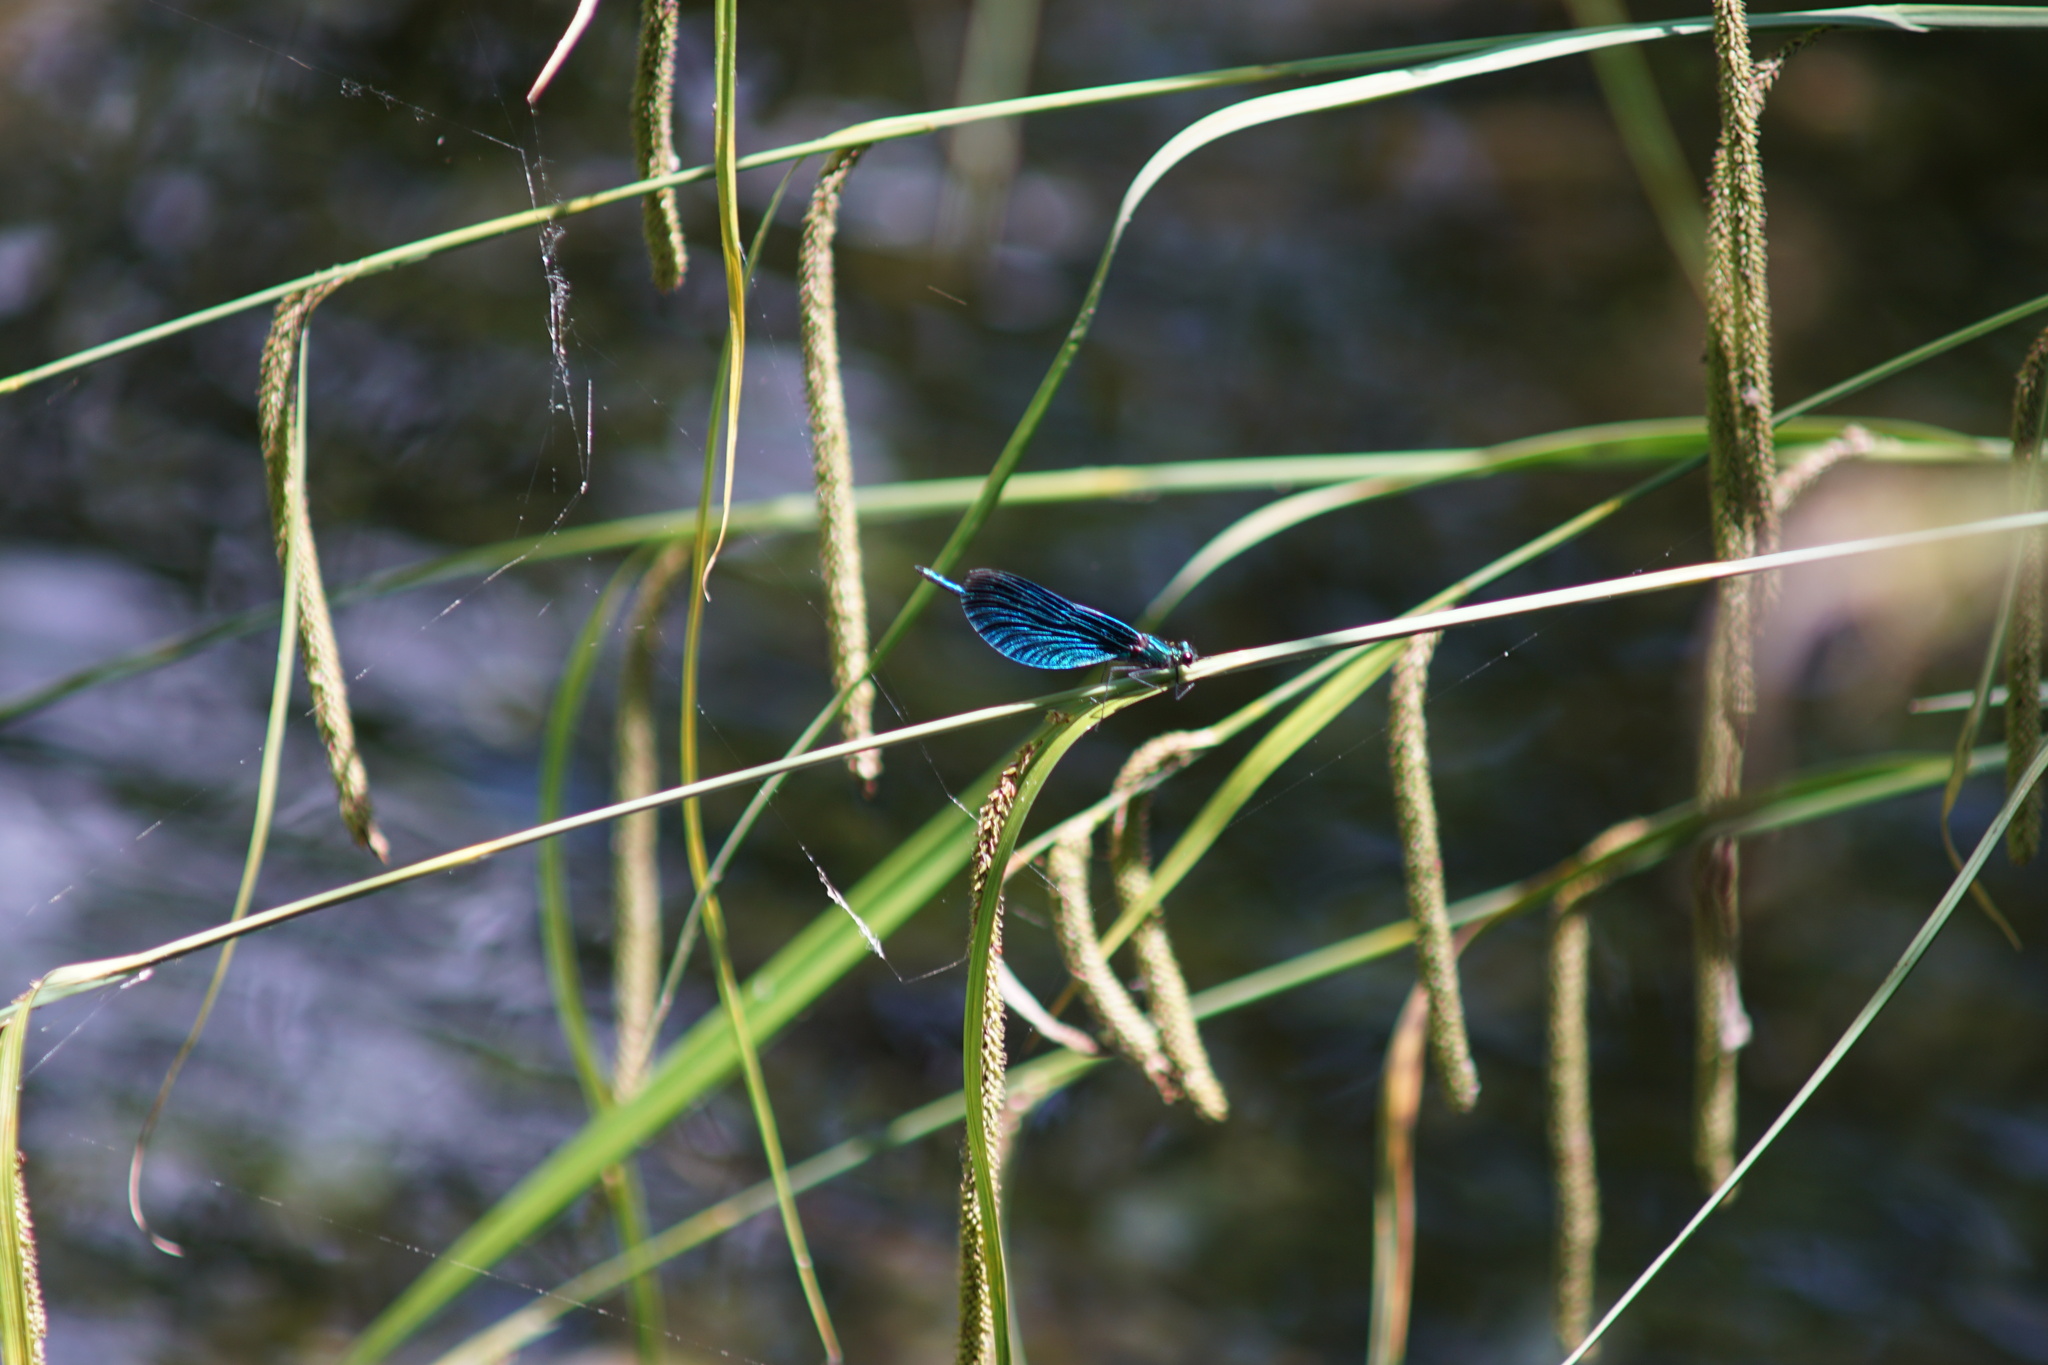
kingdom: Animalia
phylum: Arthropoda
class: Insecta
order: Odonata
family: Calopterygidae
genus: Calopteryx
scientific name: Calopteryx virgo
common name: Beautiful demoiselle
